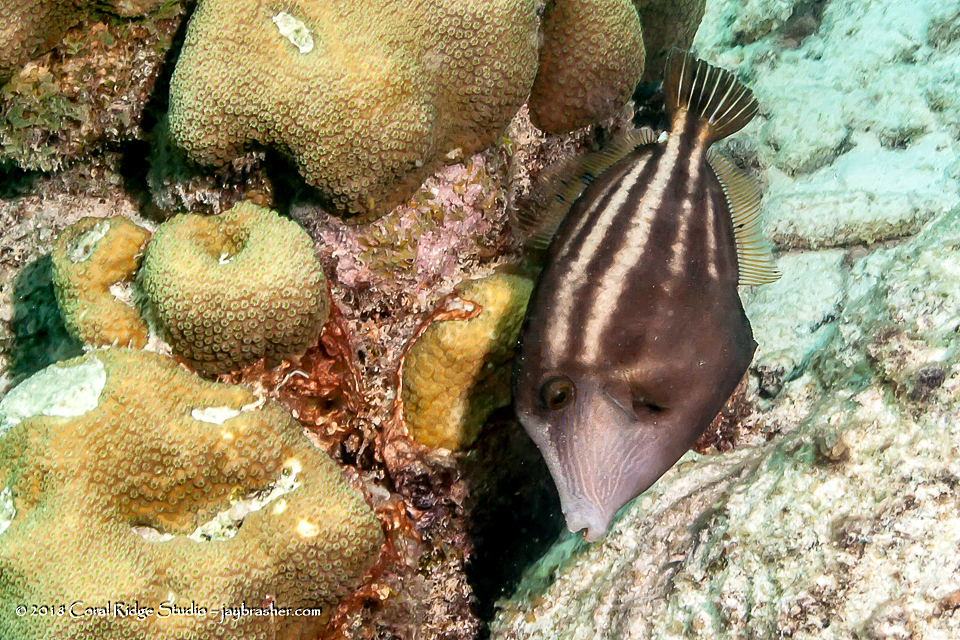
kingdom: Animalia
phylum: Chordata
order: Tetraodontiformes
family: Monacanthidae
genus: Cantherhines
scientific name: Cantherhines pullus
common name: Orangespotted filefish
